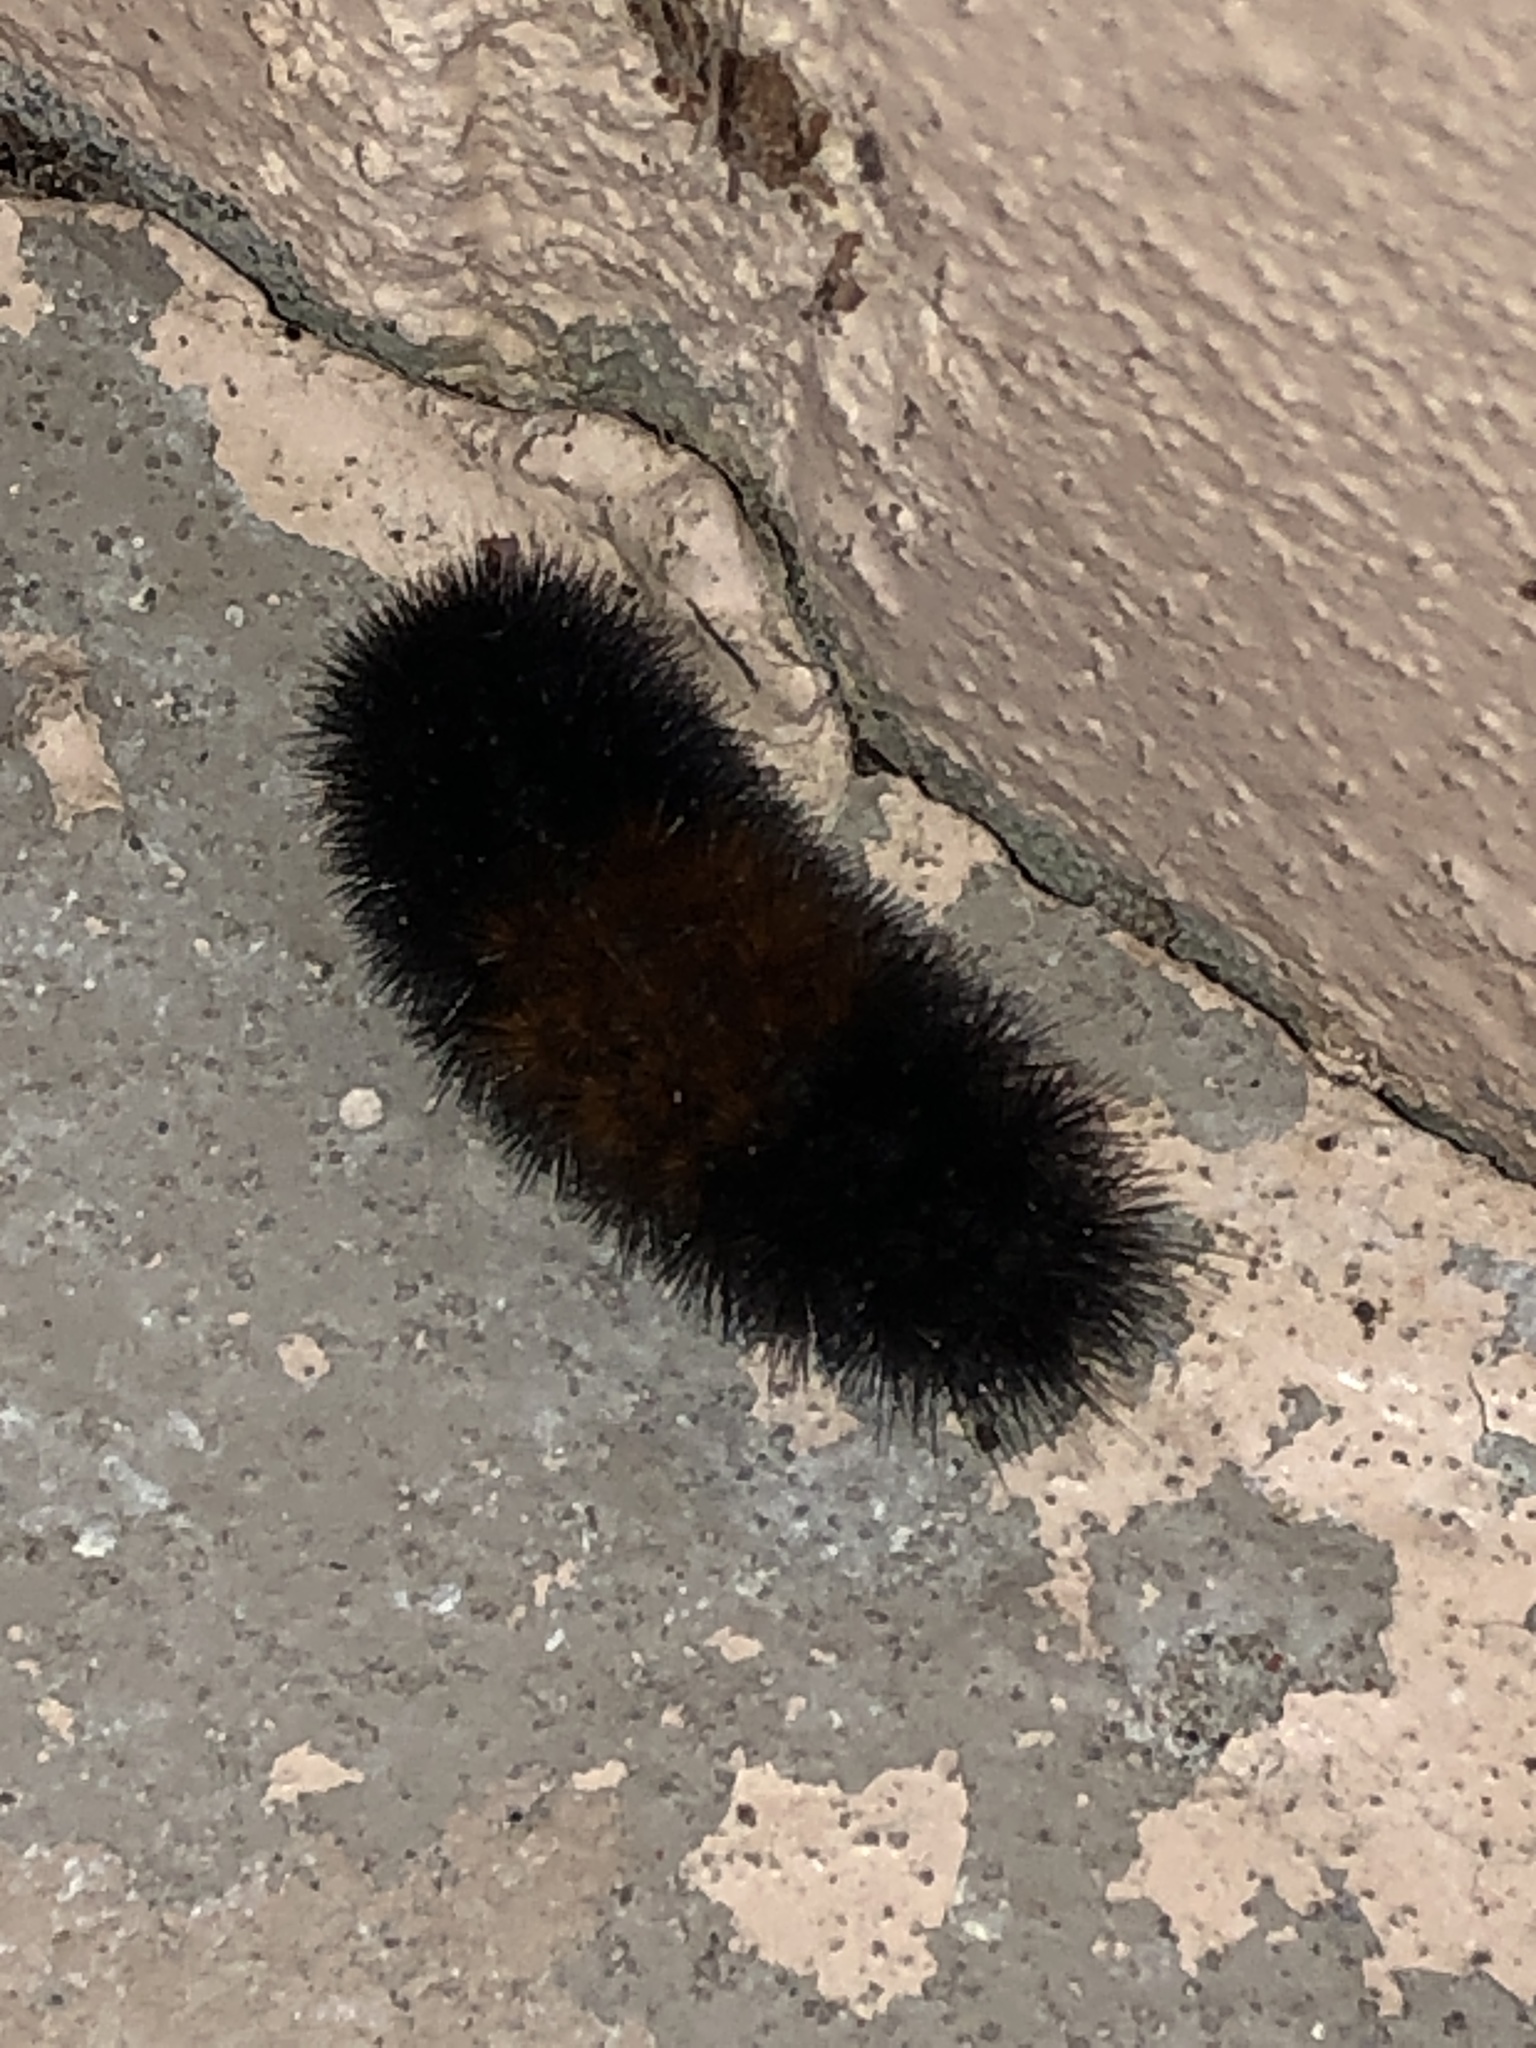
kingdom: Animalia
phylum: Arthropoda
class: Insecta
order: Lepidoptera
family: Erebidae
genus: Pyrrharctia
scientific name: Pyrrharctia isabella
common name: Isabella tiger moth
